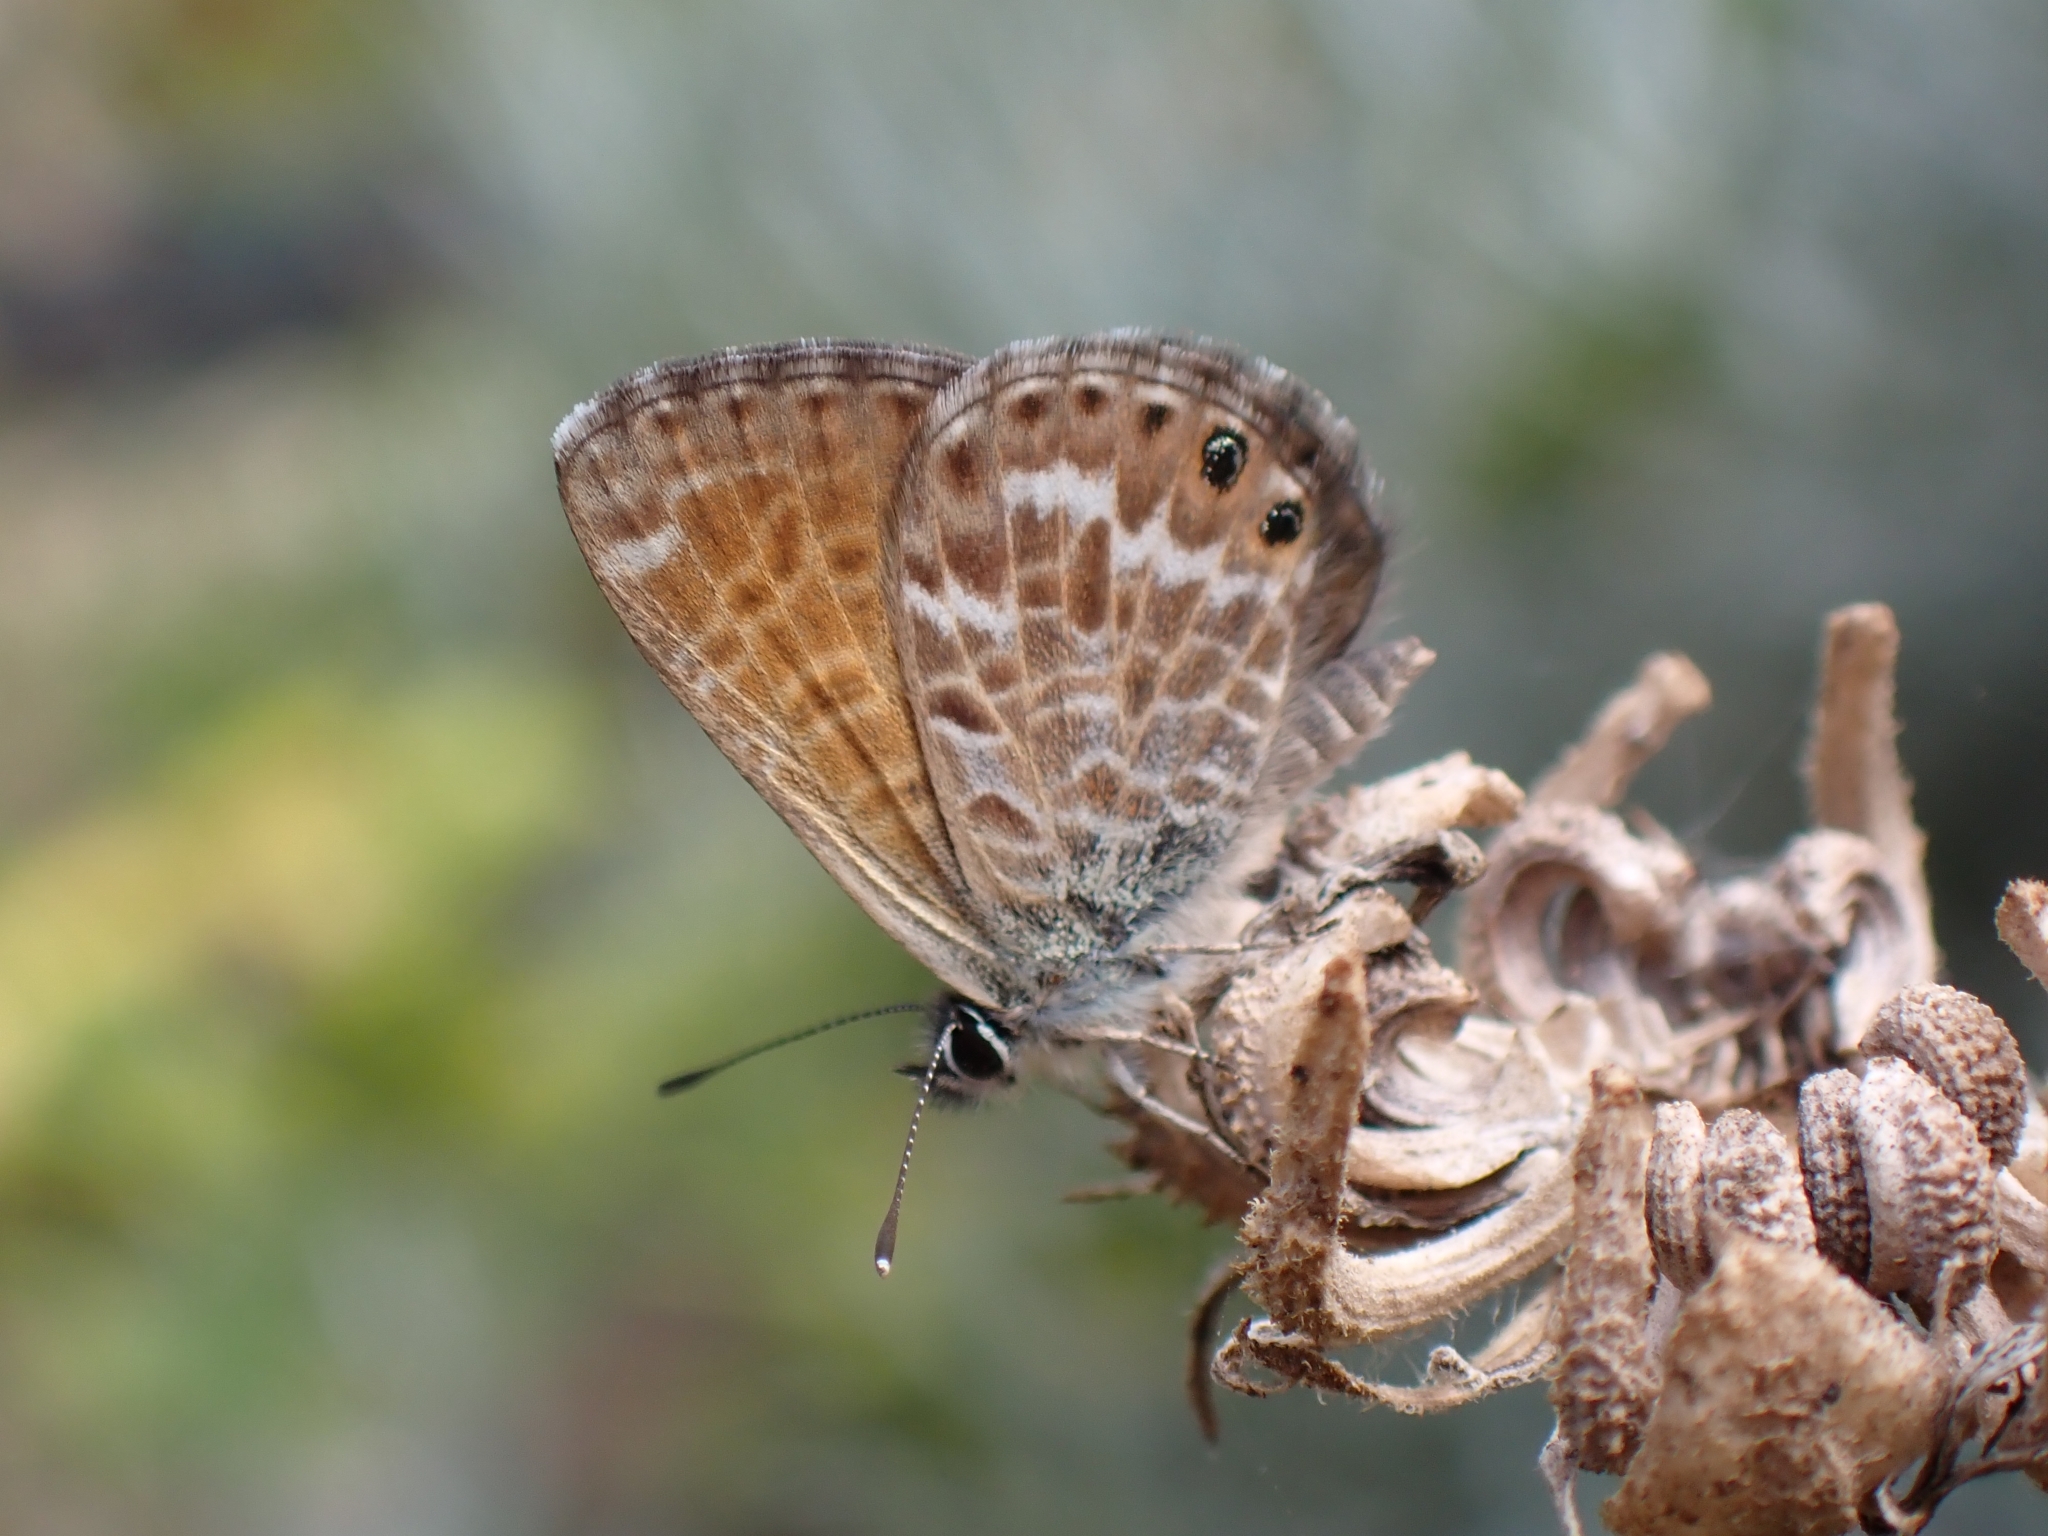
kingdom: Animalia
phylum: Arthropoda
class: Insecta
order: Lepidoptera
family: Lycaenidae
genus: Cyclyrius
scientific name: Cyclyrius webbianus
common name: Canary blue
